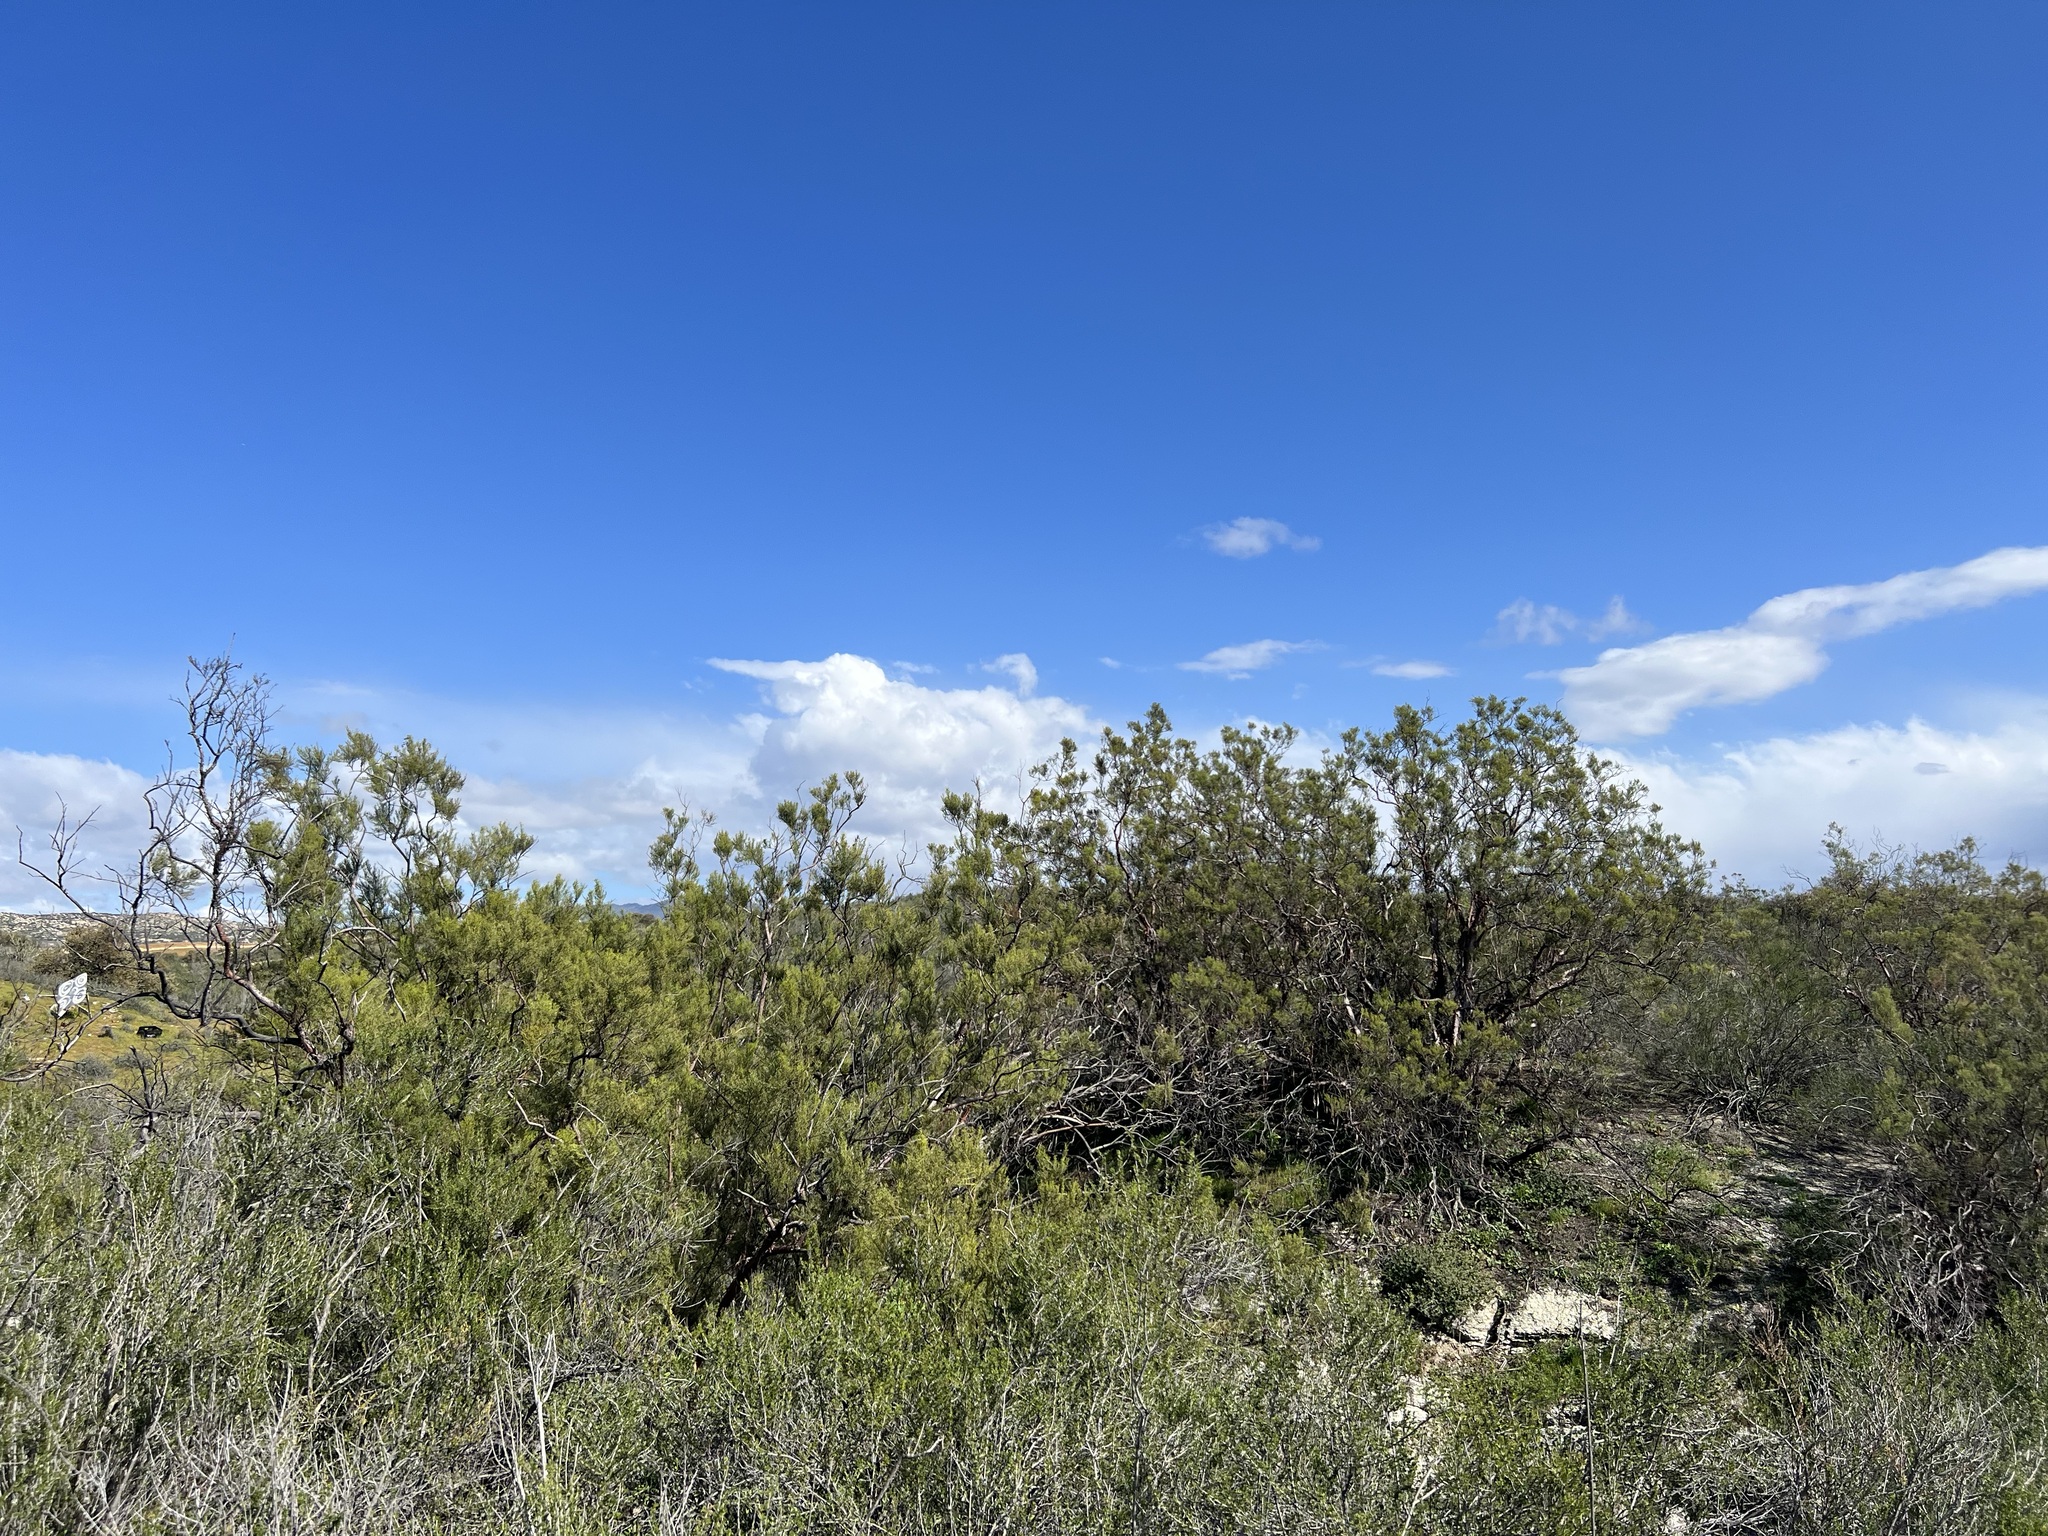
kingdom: Plantae
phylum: Tracheophyta
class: Magnoliopsida
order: Rosales
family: Rosaceae
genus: Adenostoma
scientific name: Adenostoma sparsifolium
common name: Red shank
